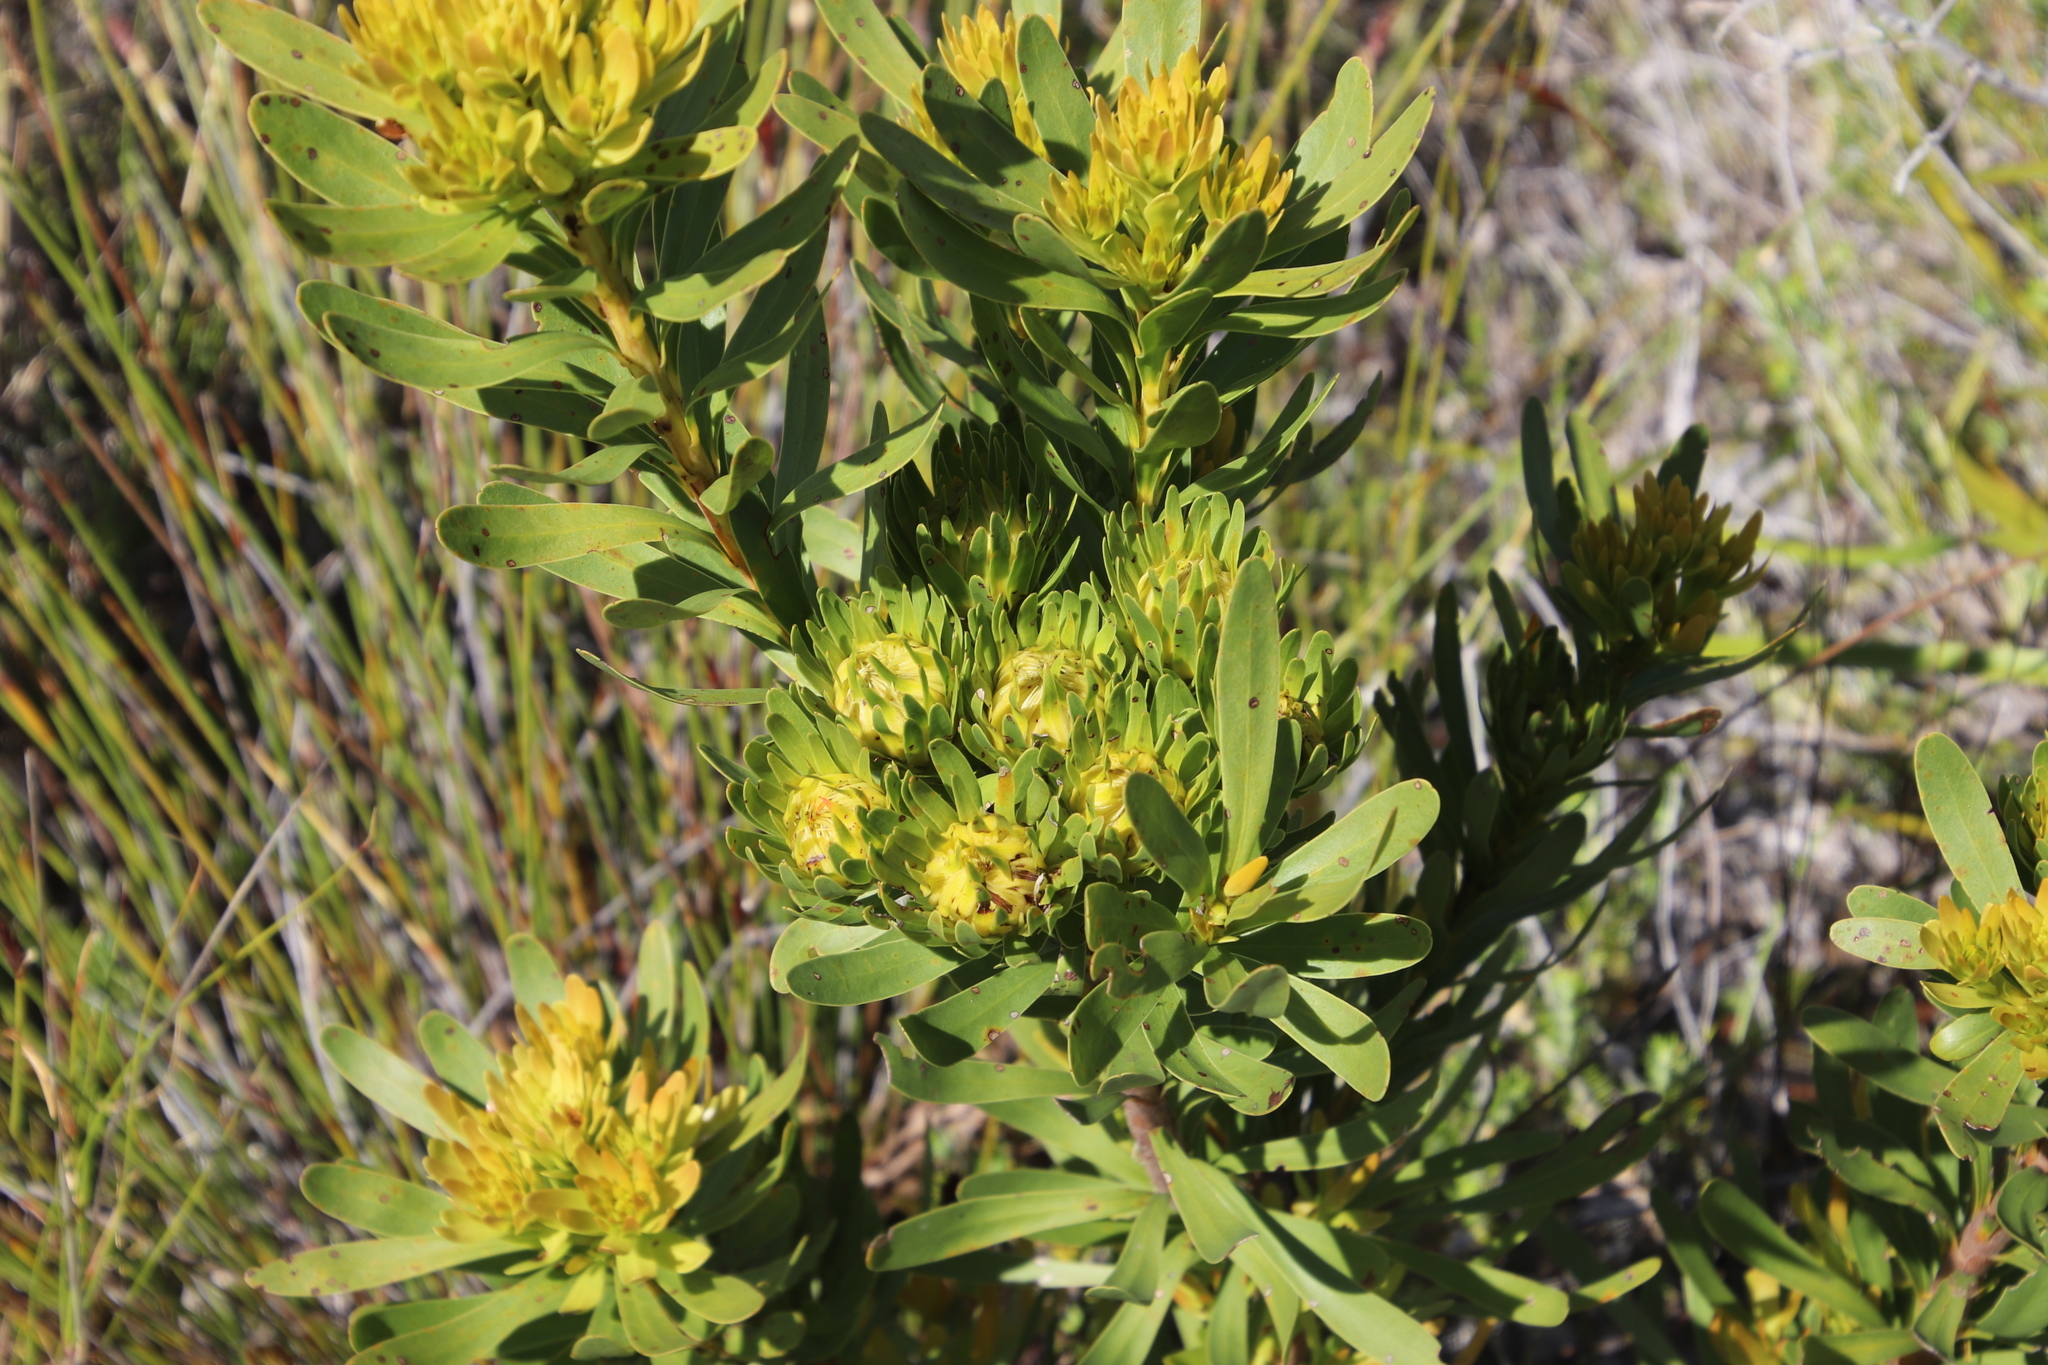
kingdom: Plantae
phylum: Tracheophyta
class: Magnoliopsida
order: Proteales
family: Proteaceae
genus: Aulax
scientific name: Aulax umbellata
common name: Broad-leaf featherbush
